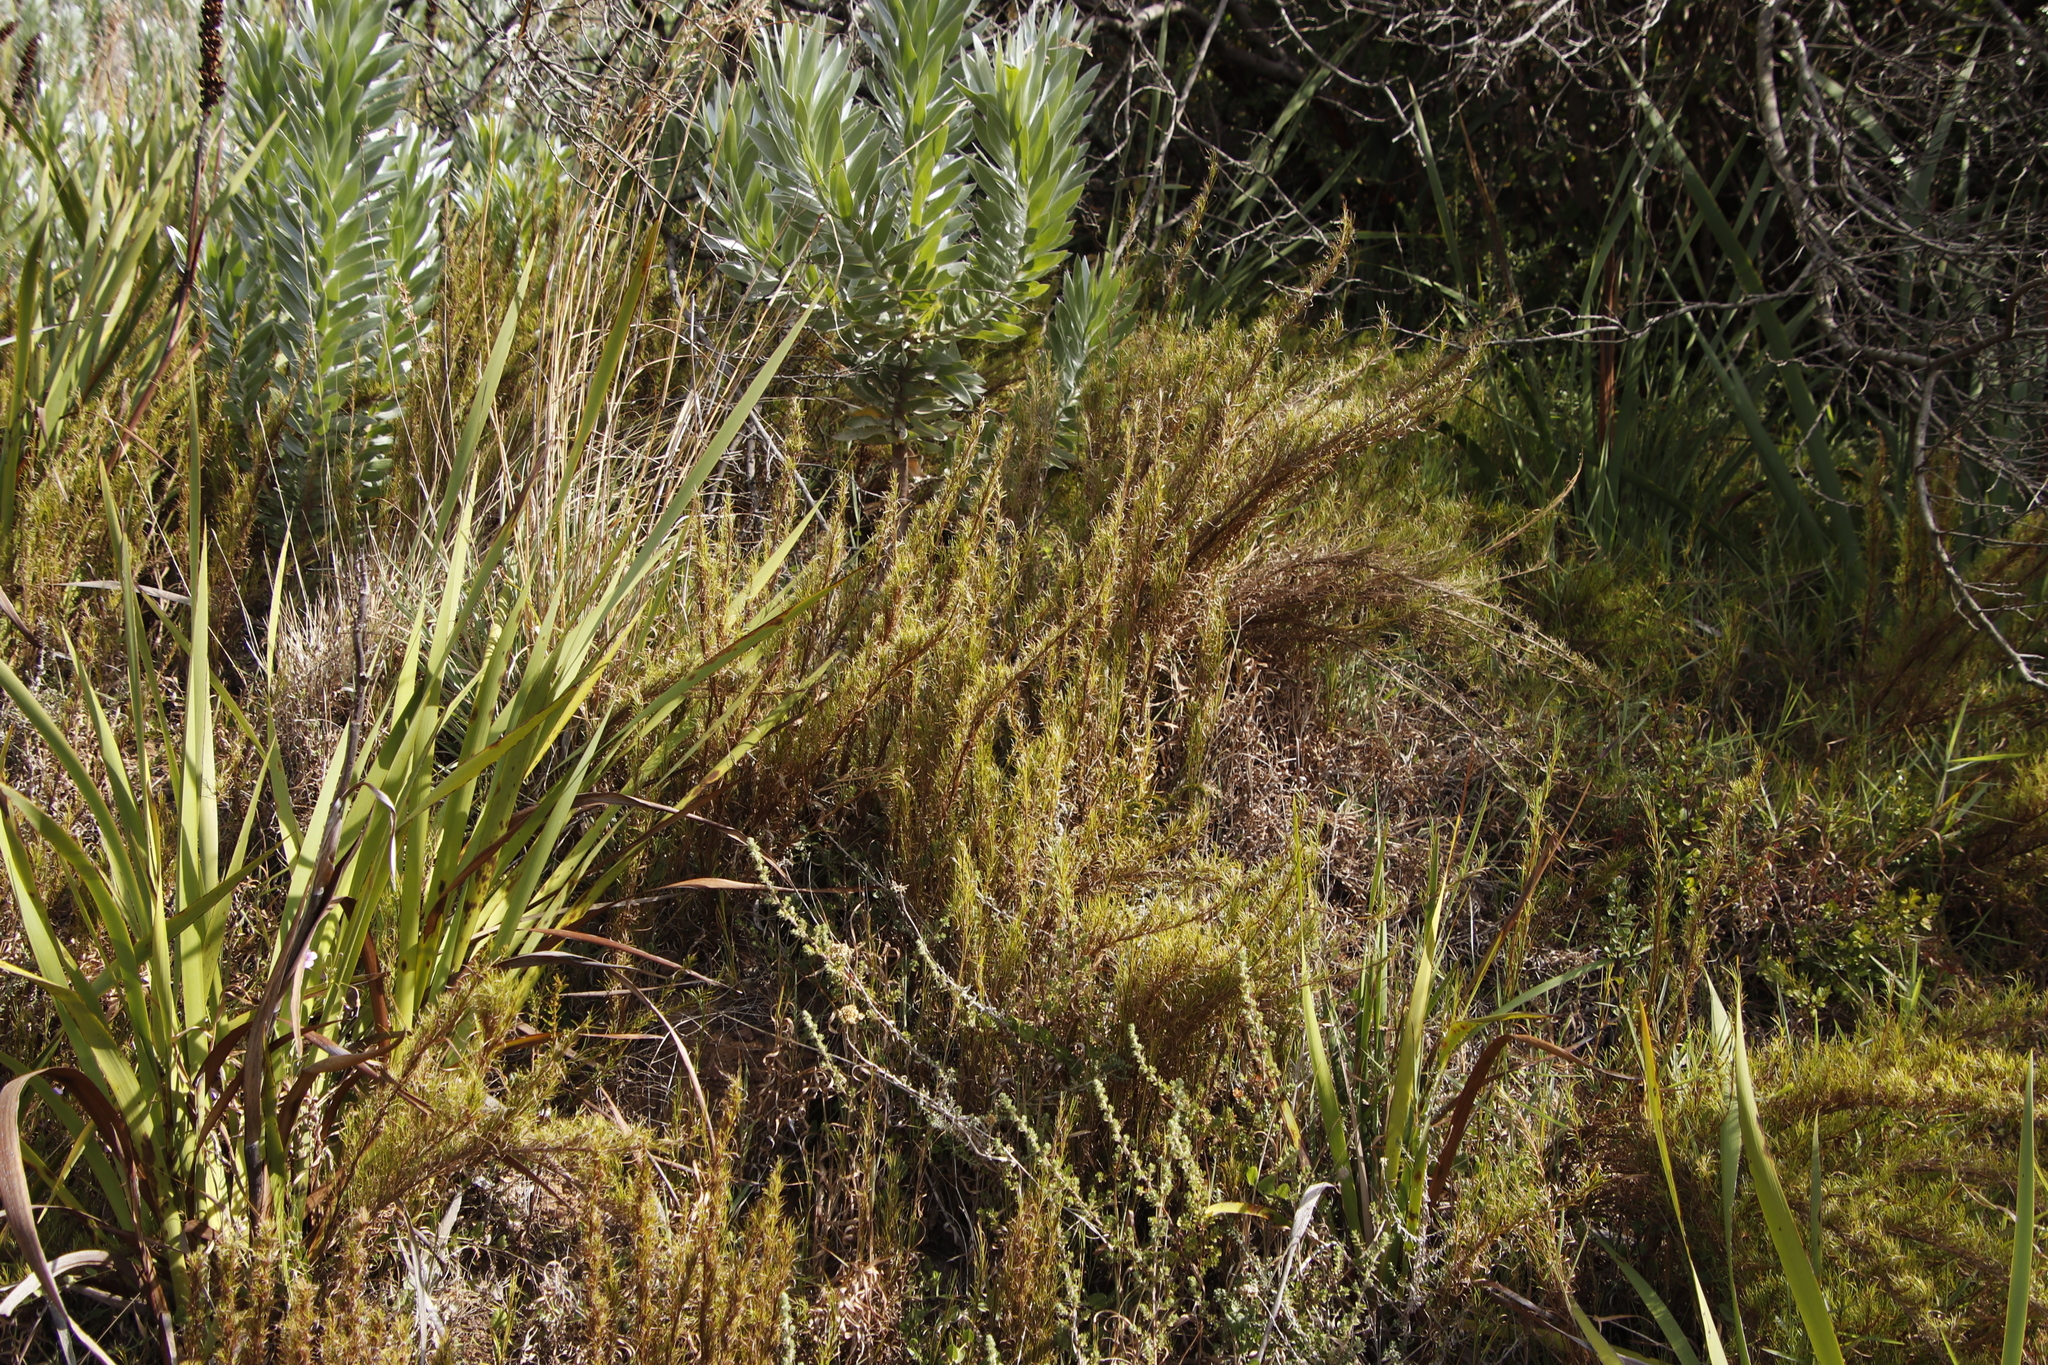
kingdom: Plantae
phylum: Tracheophyta
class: Liliopsida
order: Poales
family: Cyperaceae
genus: Ficinia
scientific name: Ficinia ramosissima
